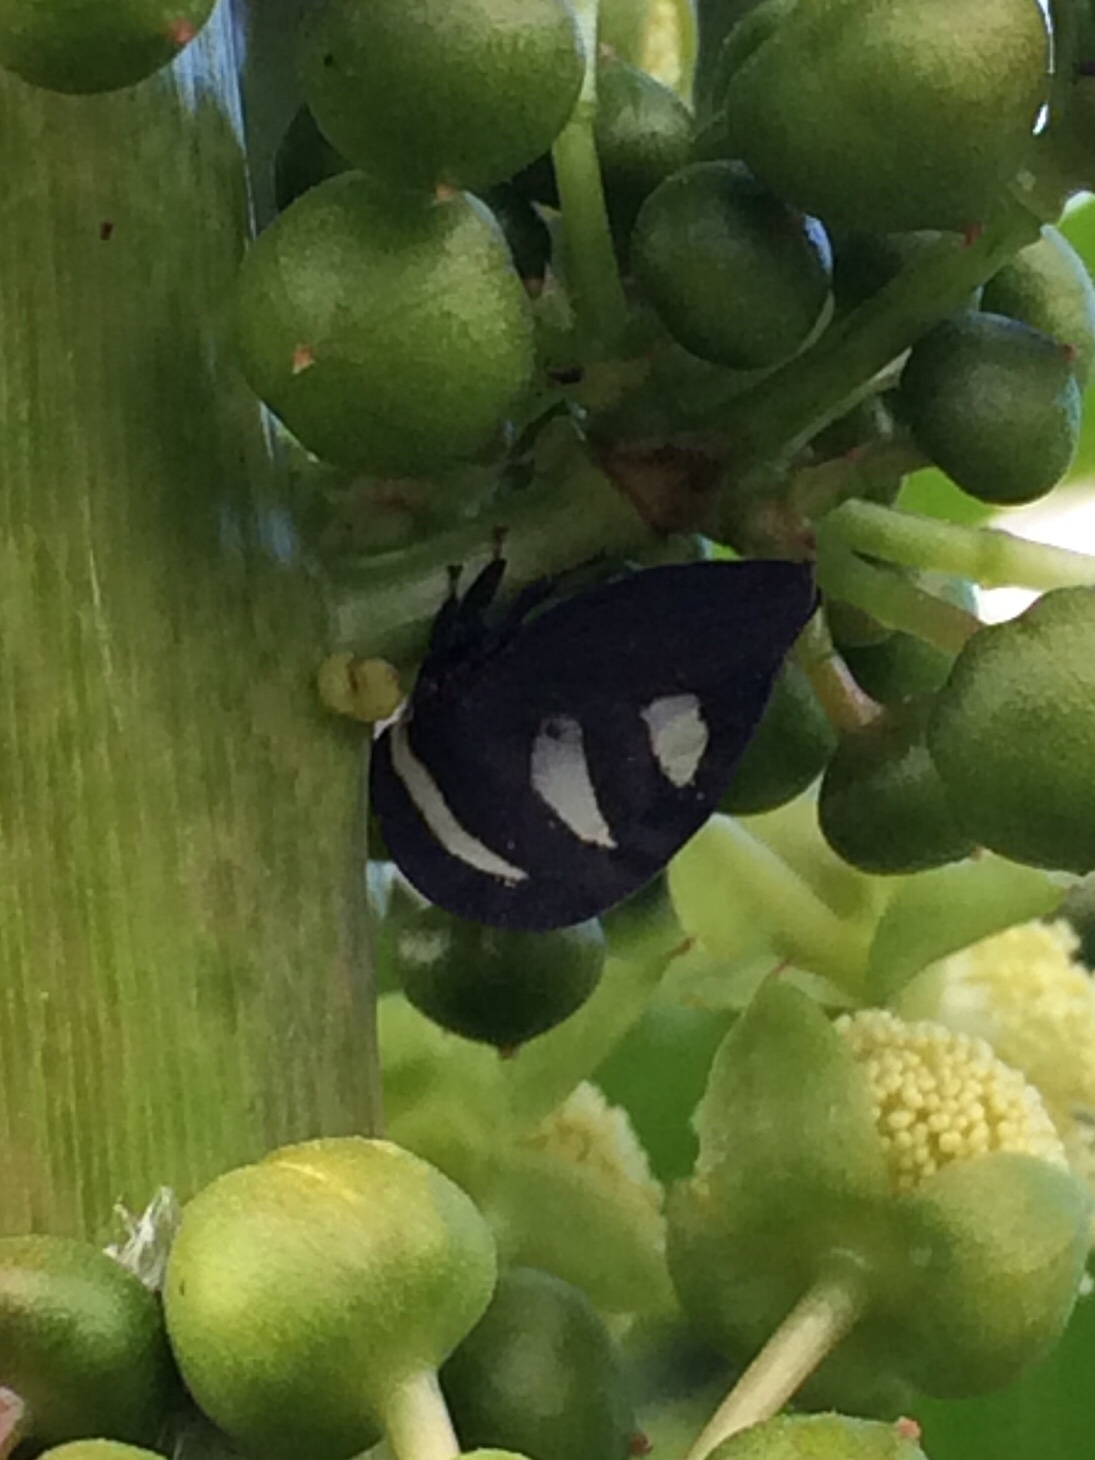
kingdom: Animalia
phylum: Arthropoda
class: Insecta
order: Hemiptera
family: Membracidae
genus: Membracis
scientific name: Membracis
